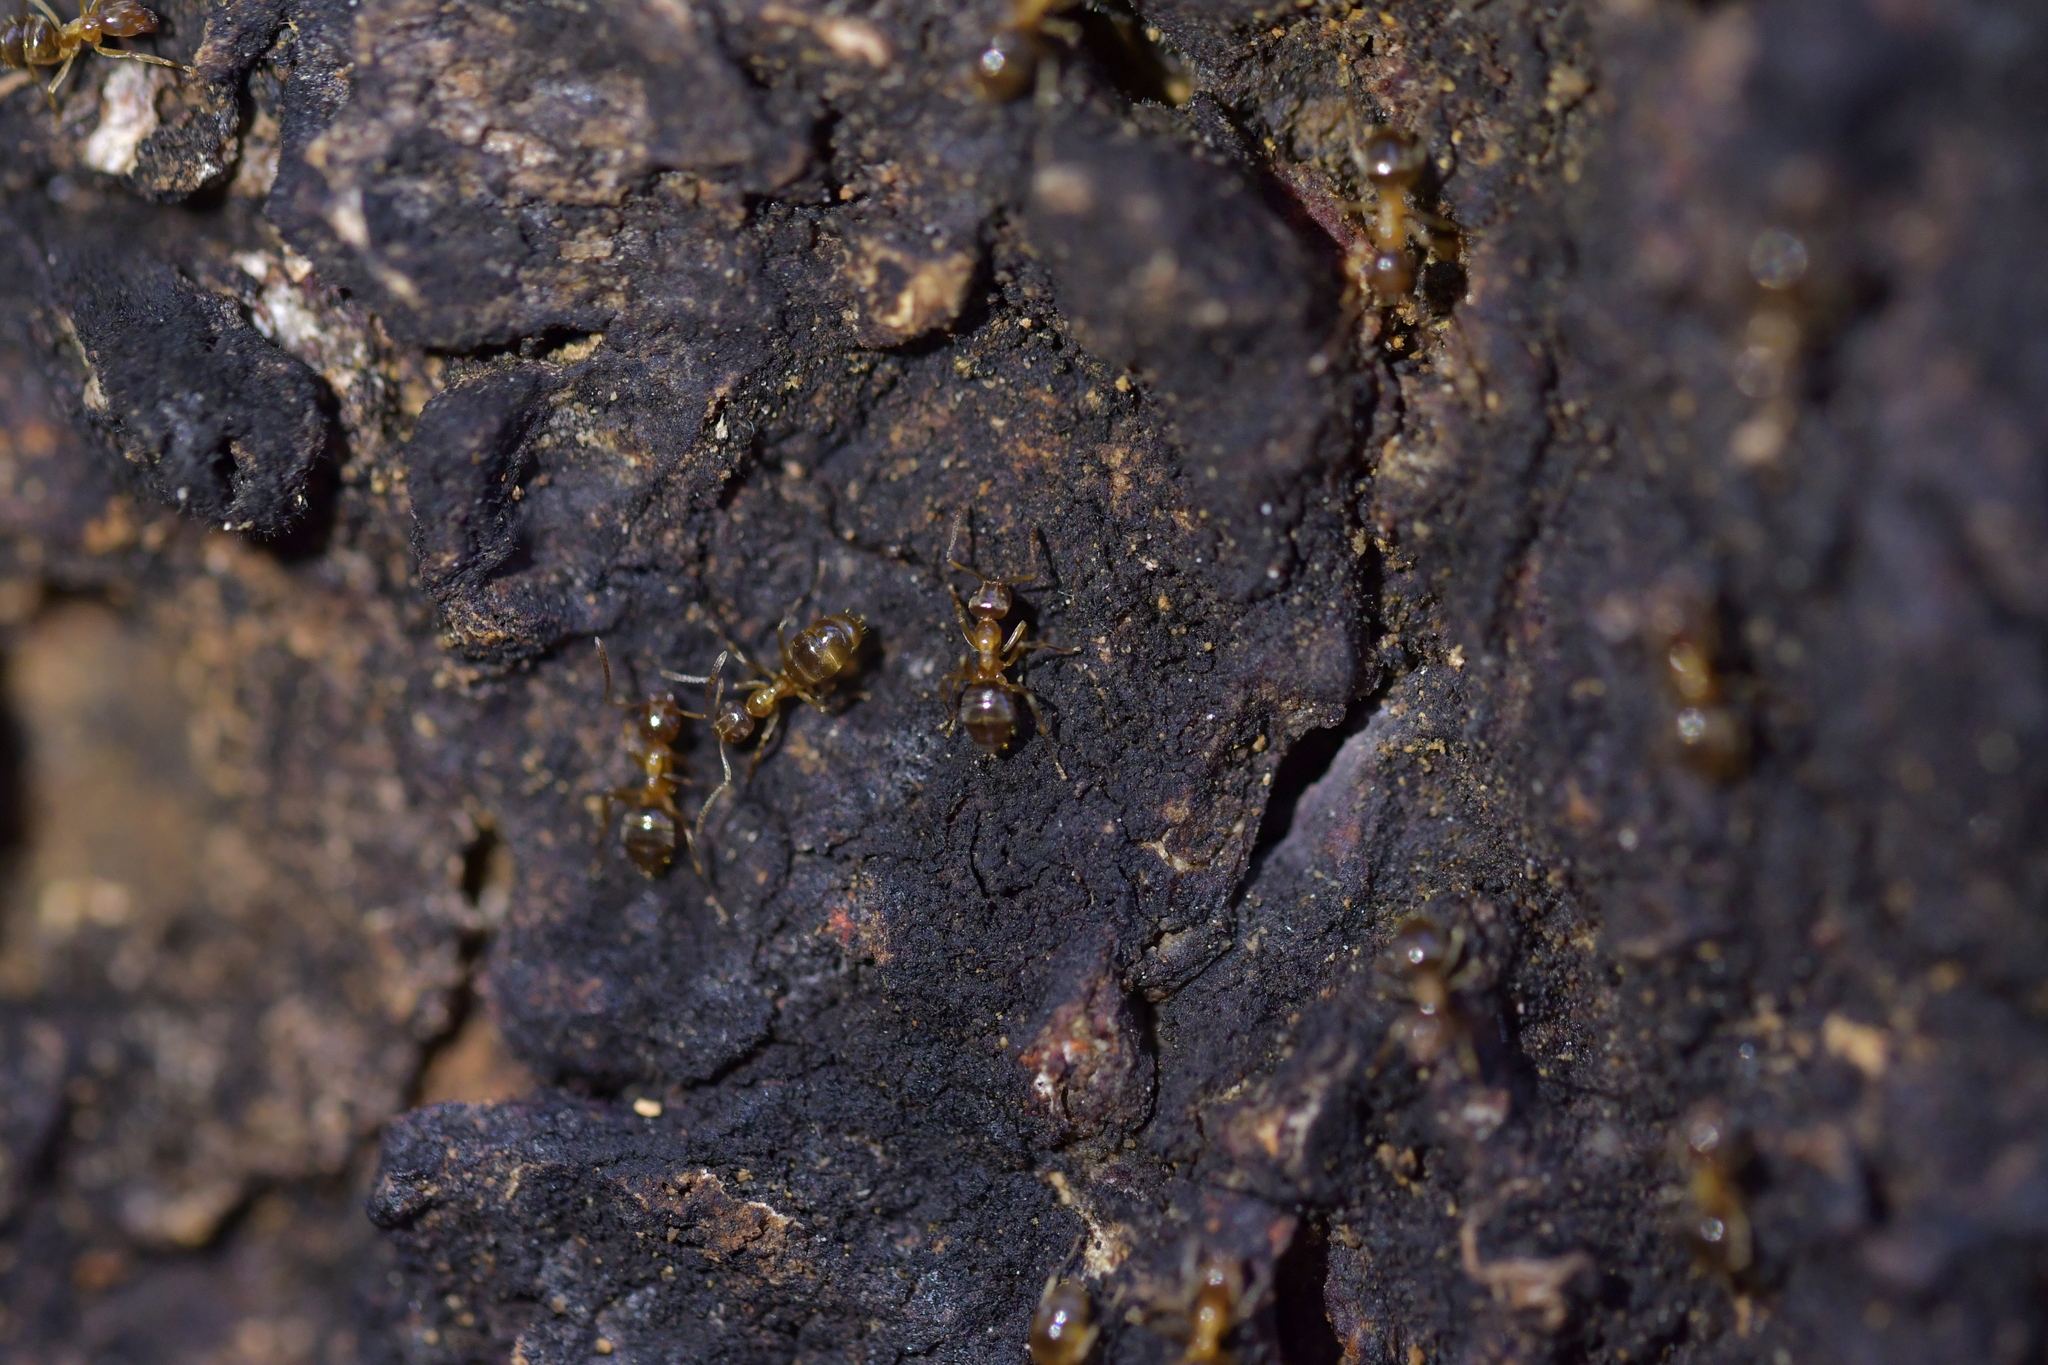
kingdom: Animalia
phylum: Arthropoda
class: Insecta
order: Hymenoptera
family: Formicidae
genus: Prolasius
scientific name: Prolasius advenus
